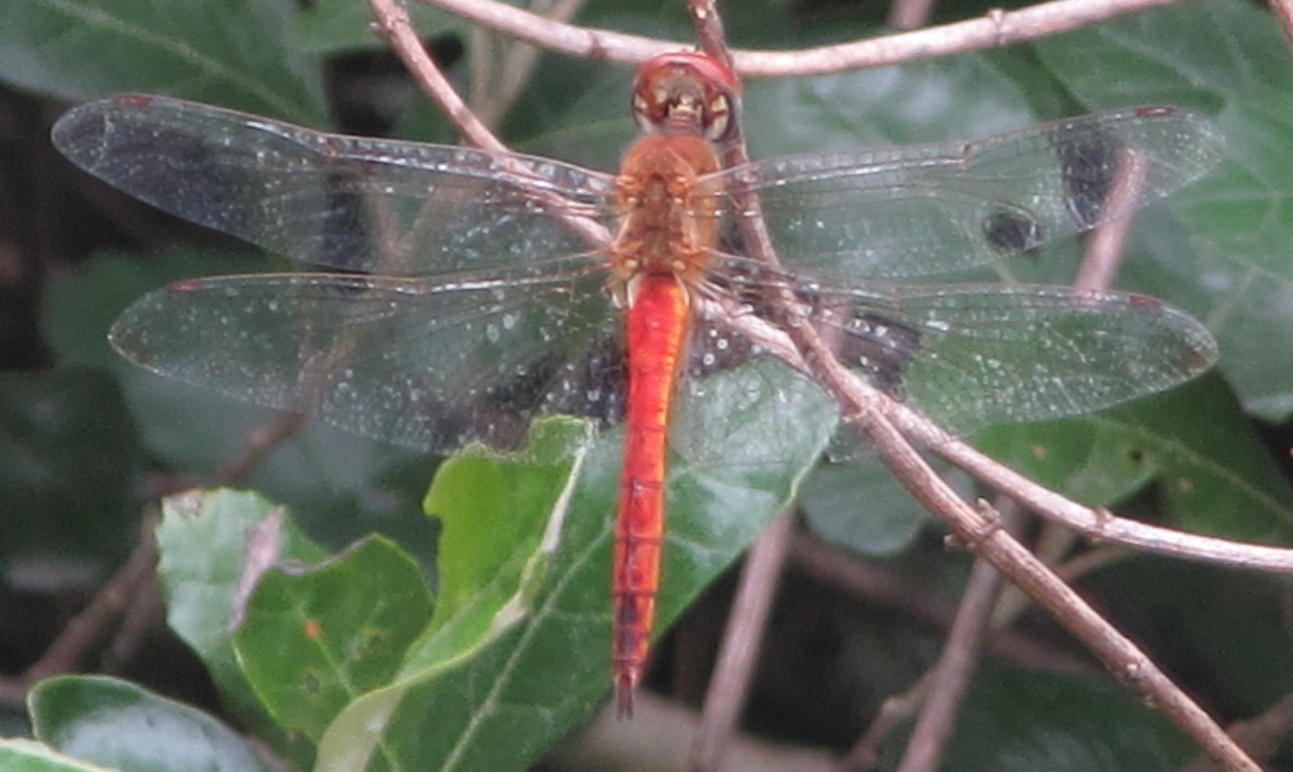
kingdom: Animalia
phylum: Arthropoda
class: Insecta
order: Odonata
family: Libellulidae
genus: Pantala
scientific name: Pantala flavescens
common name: Wandering glider
